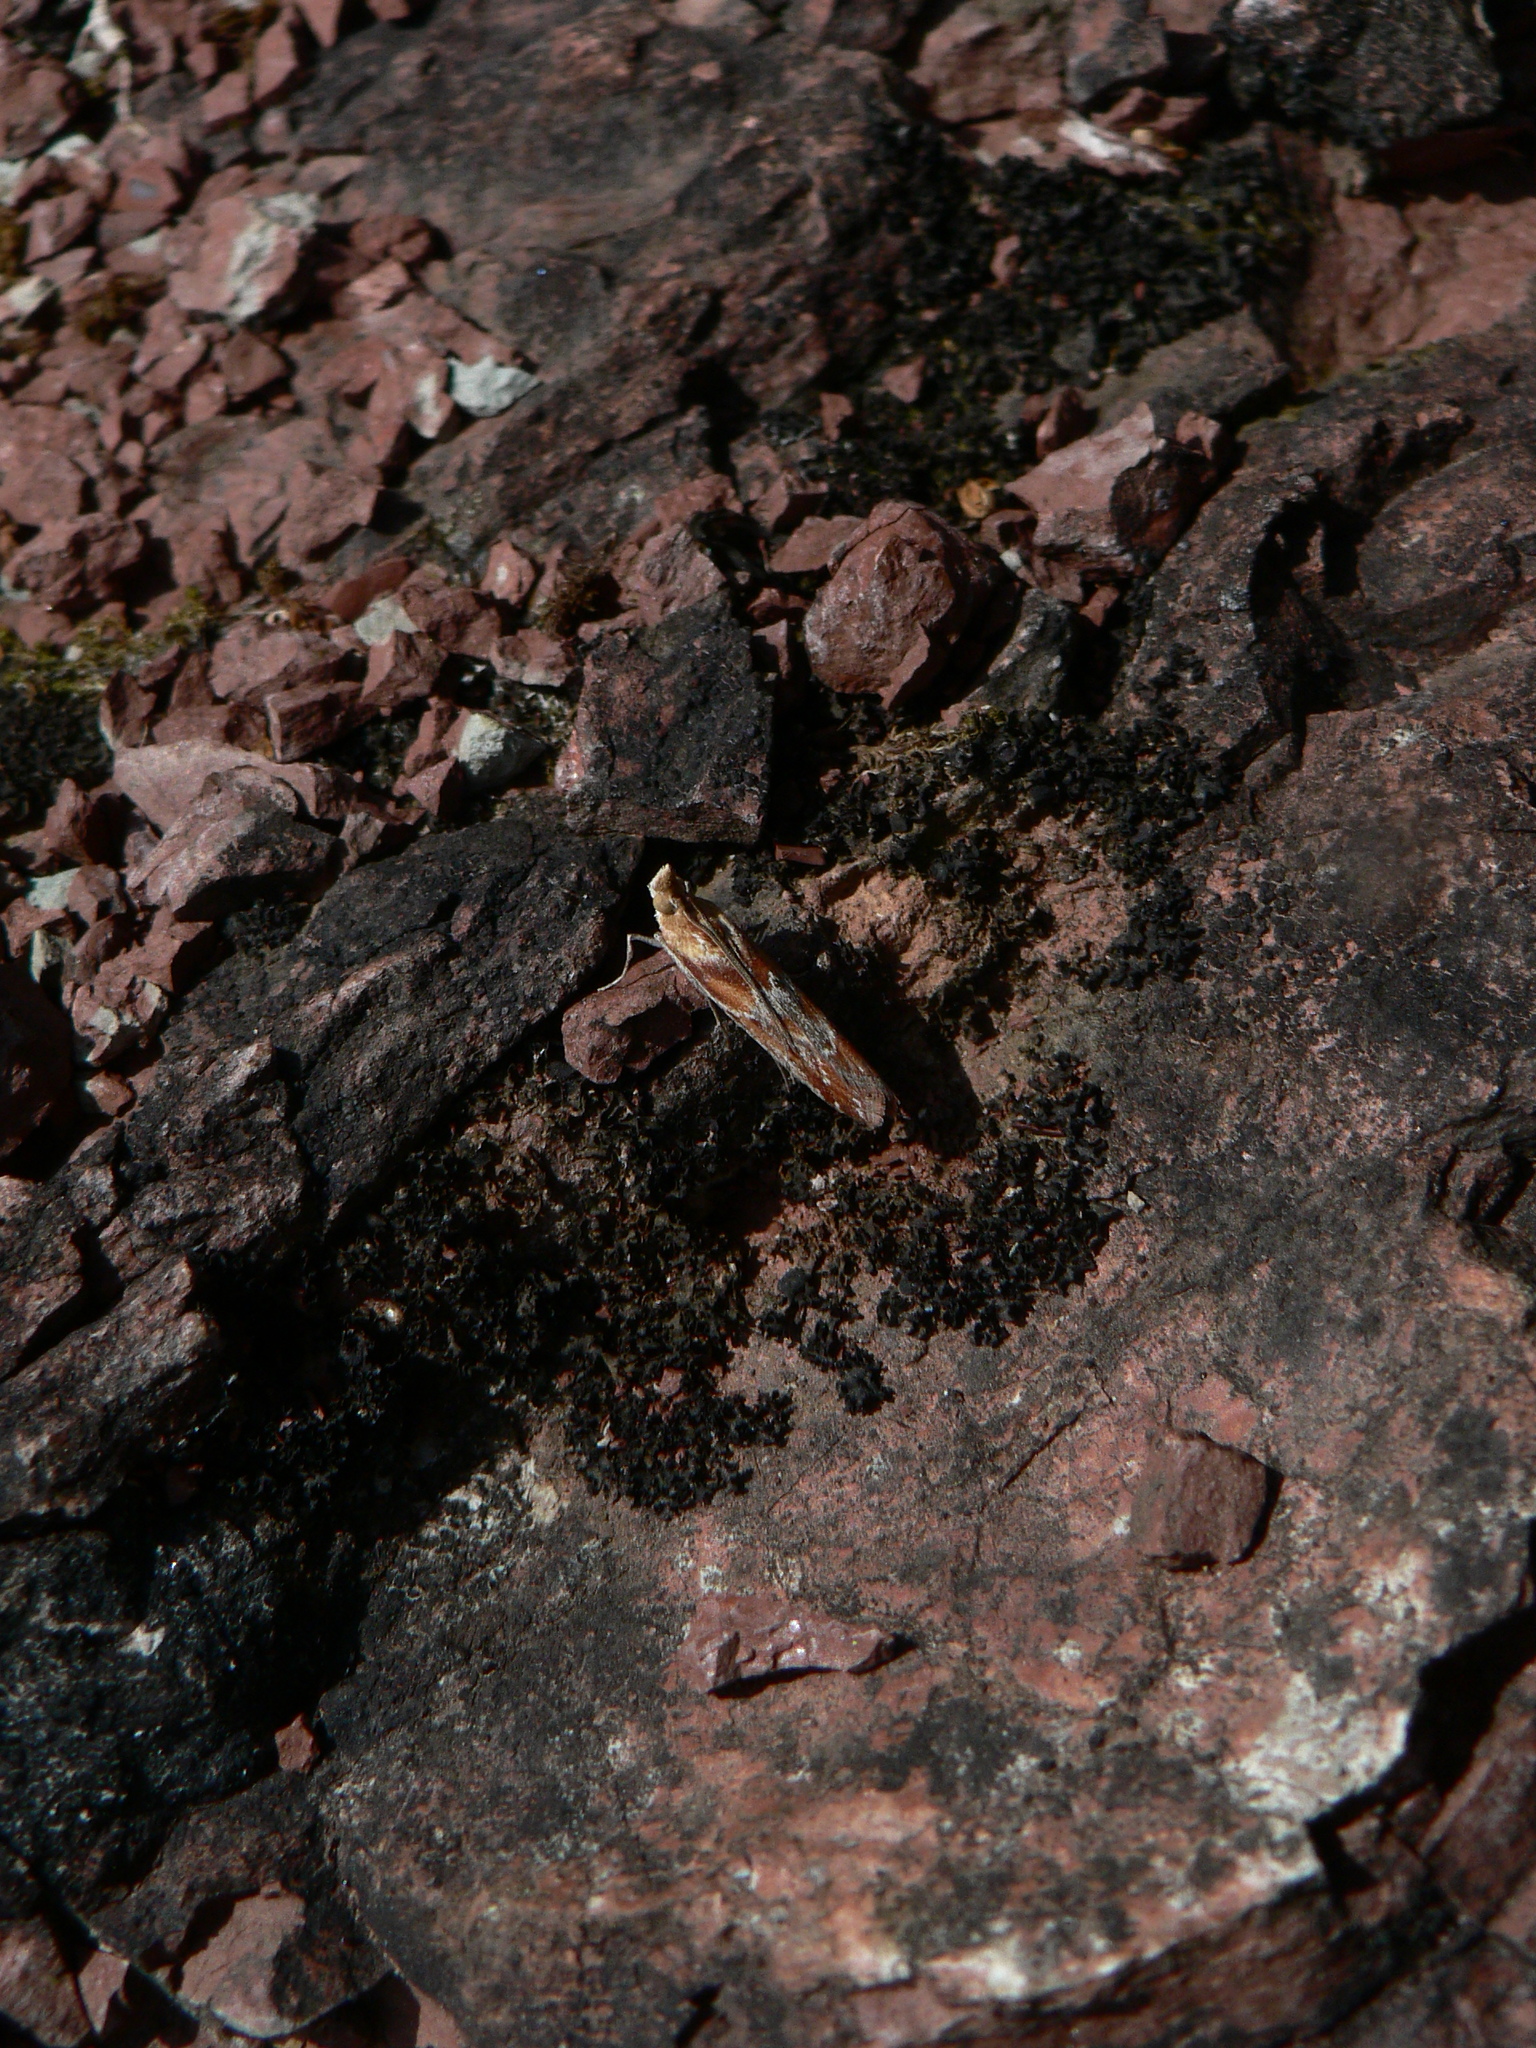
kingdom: Animalia
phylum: Arthropoda
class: Insecta
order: Lepidoptera
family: Pyralidae
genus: Ancylosis
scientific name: Ancylosis cinnamomella
